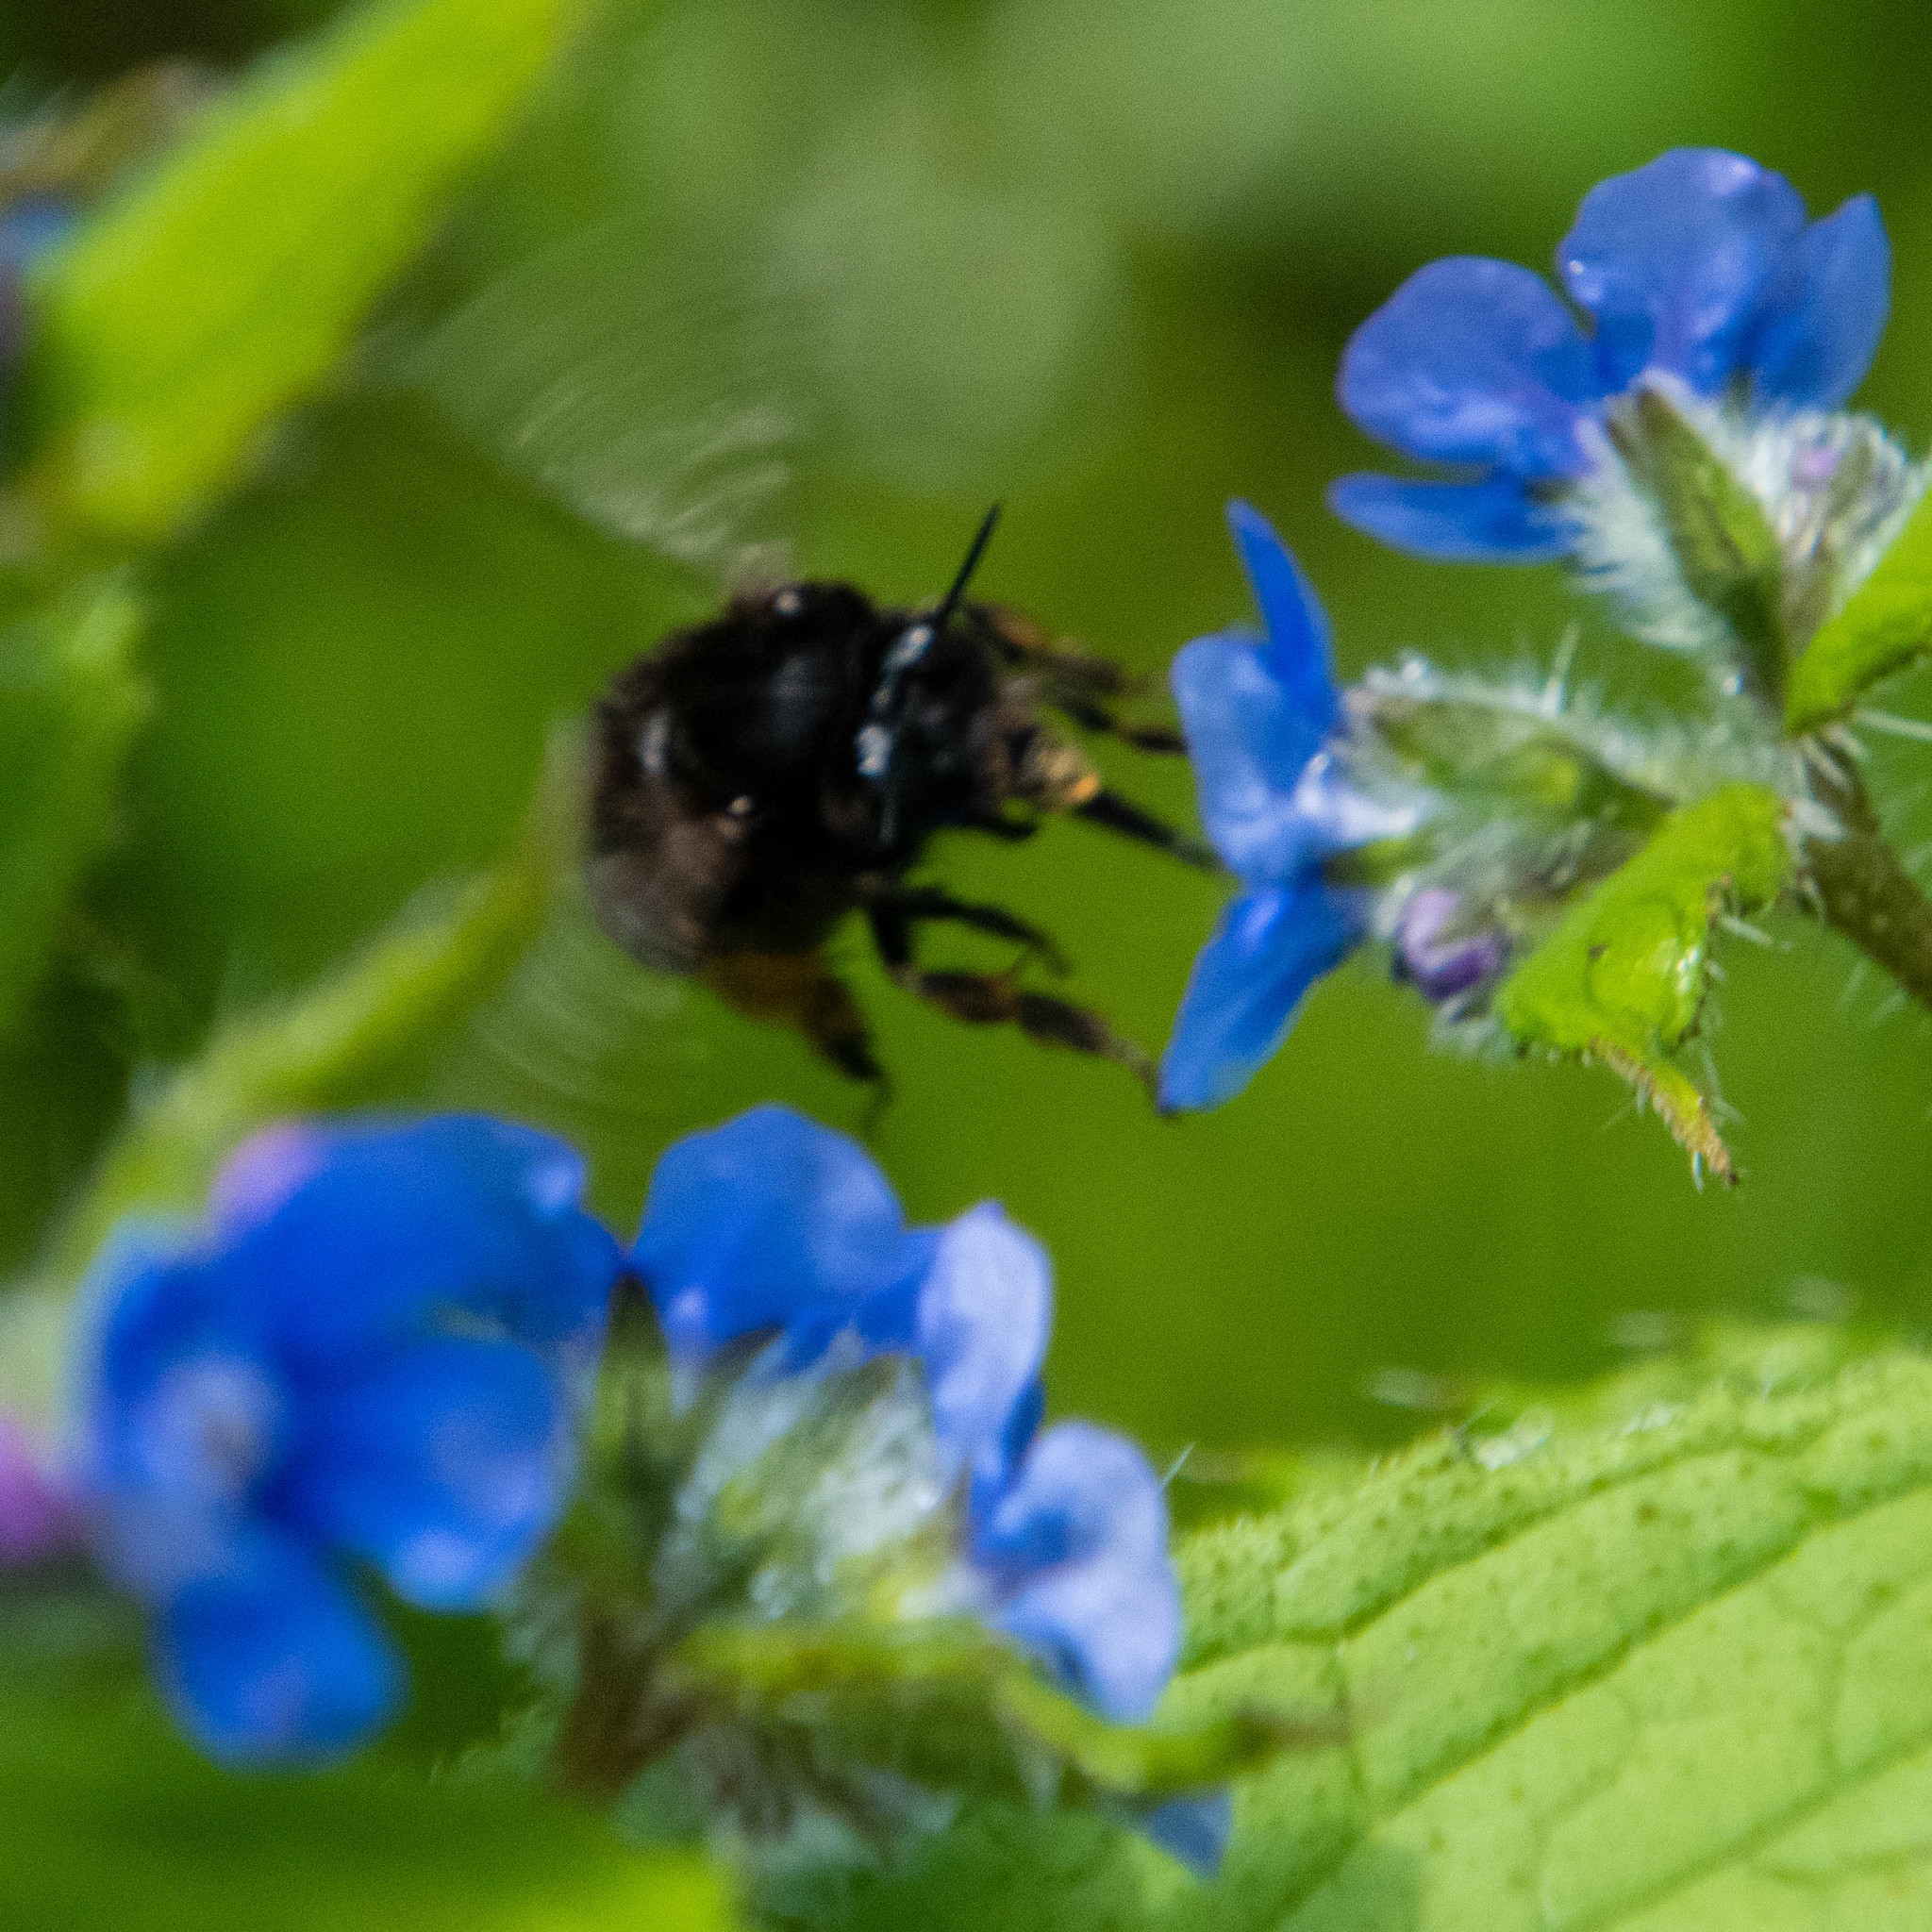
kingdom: Animalia
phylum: Arthropoda
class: Insecta
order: Hymenoptera
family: Apidae
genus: Anthophora
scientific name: Anthophora plumipes
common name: Hairy-footed flower bee
